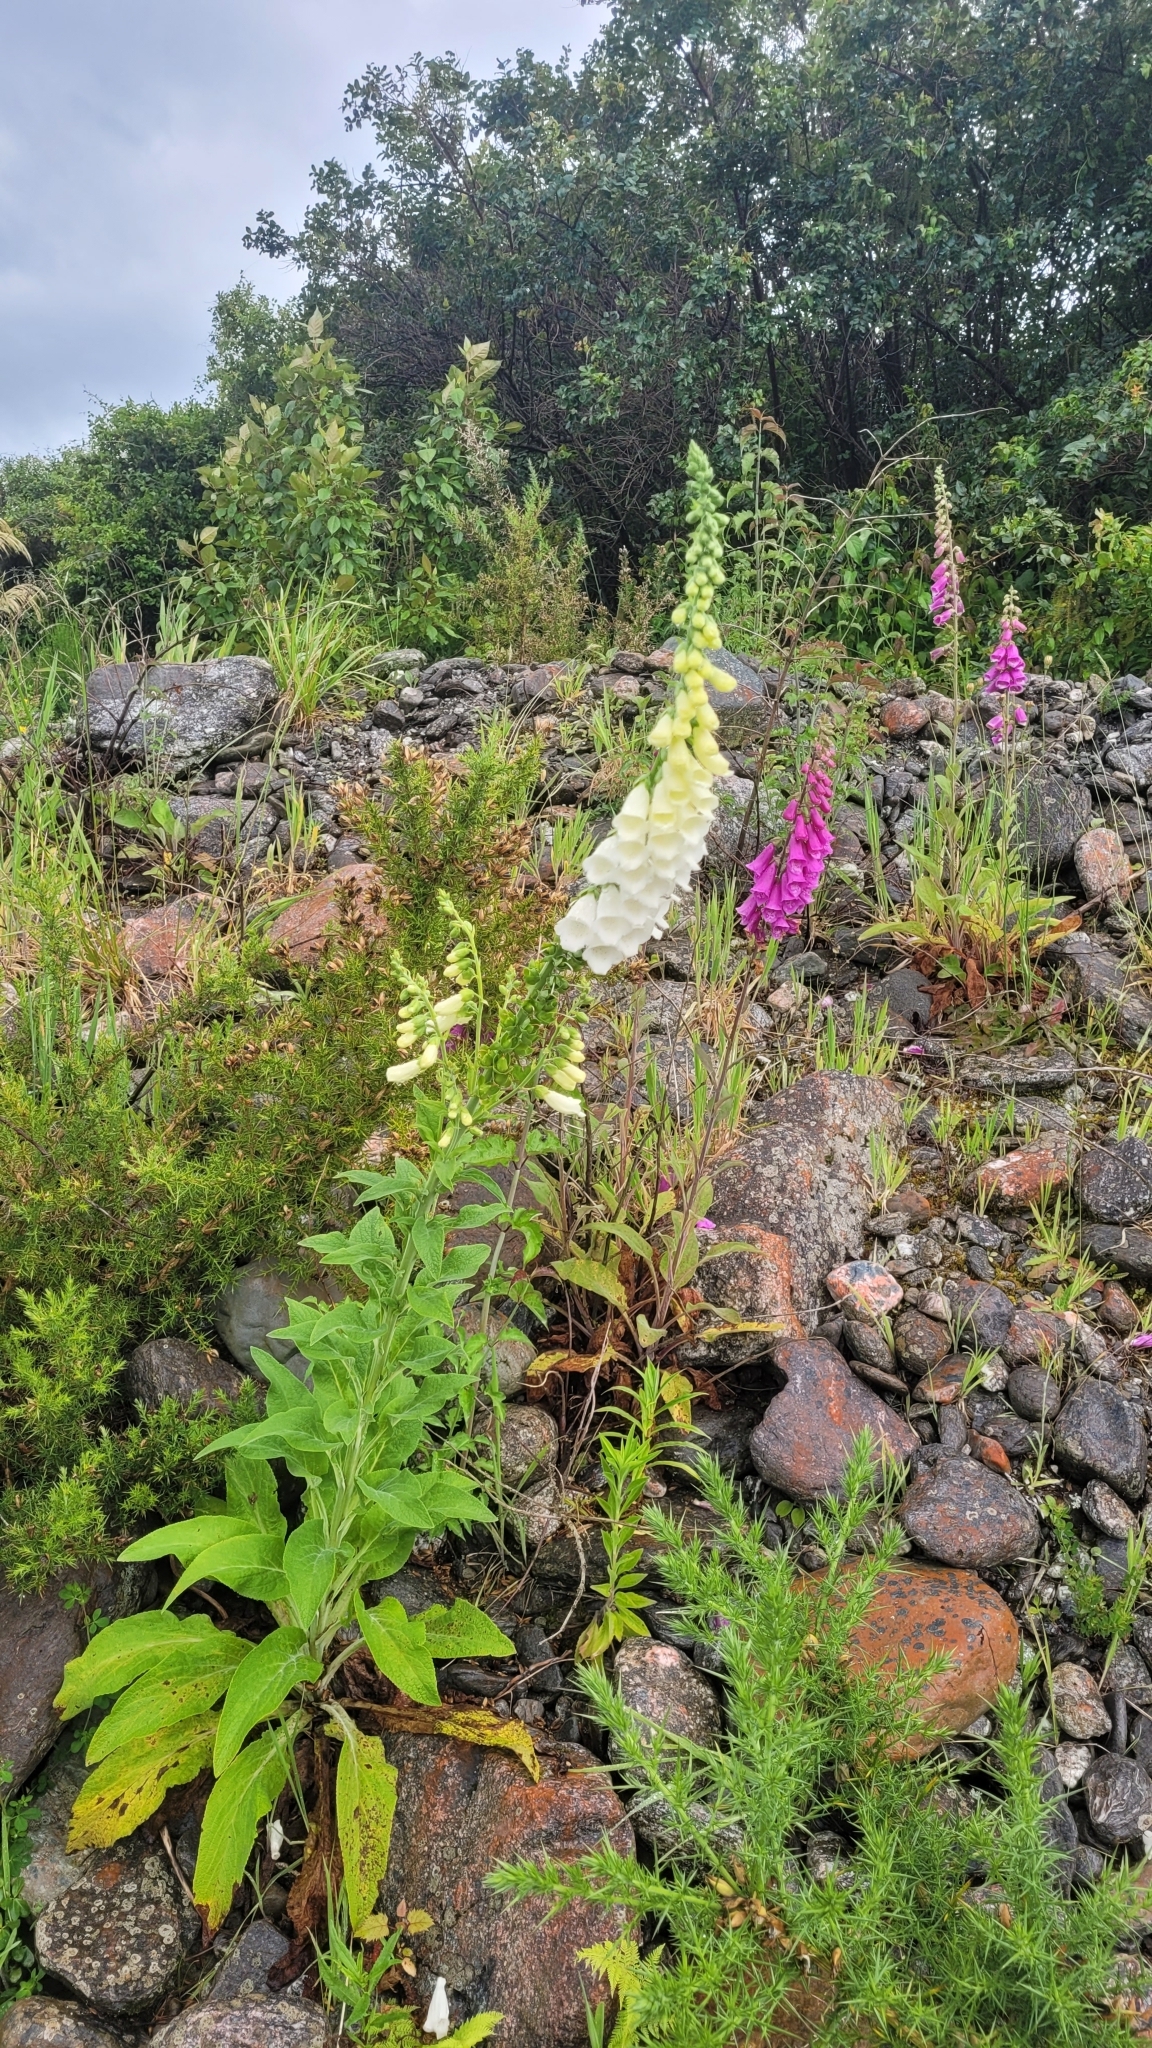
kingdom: Plantae
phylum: Tracheophyta
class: Magnoliopsida
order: Lamiales
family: Plantaginaceae
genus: Digitalis
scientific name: Digitalis purpurea
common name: Foxglove
